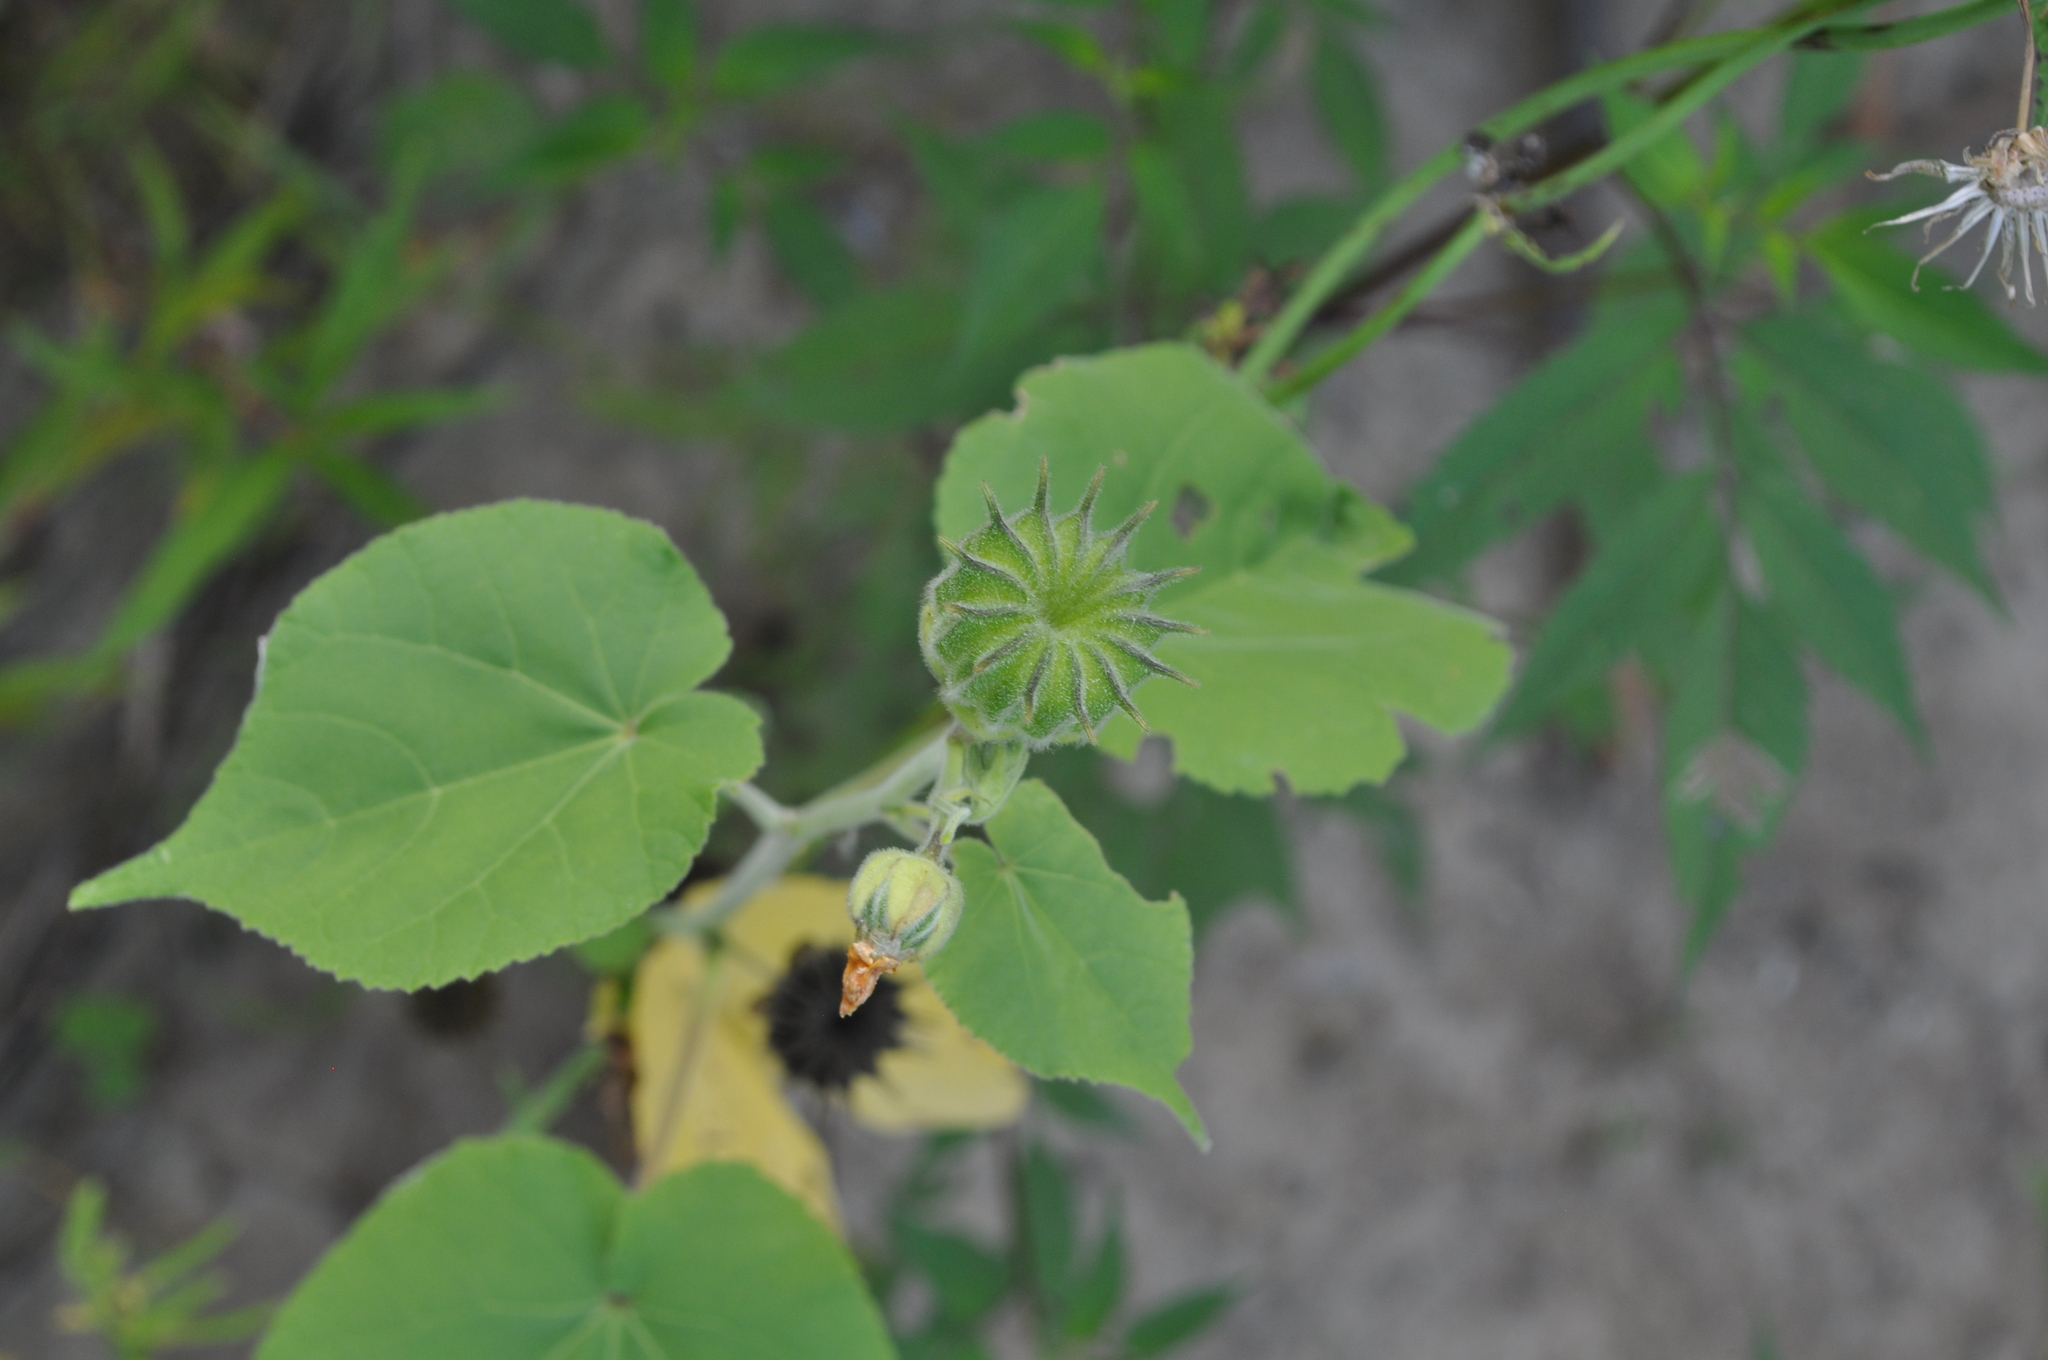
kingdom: Plantae
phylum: Tracheophyta
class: Magnoliopsida
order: Malvales
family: Malvaceae
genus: Abutilon
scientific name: Abutilon theophrasti
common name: Velvetleaf
